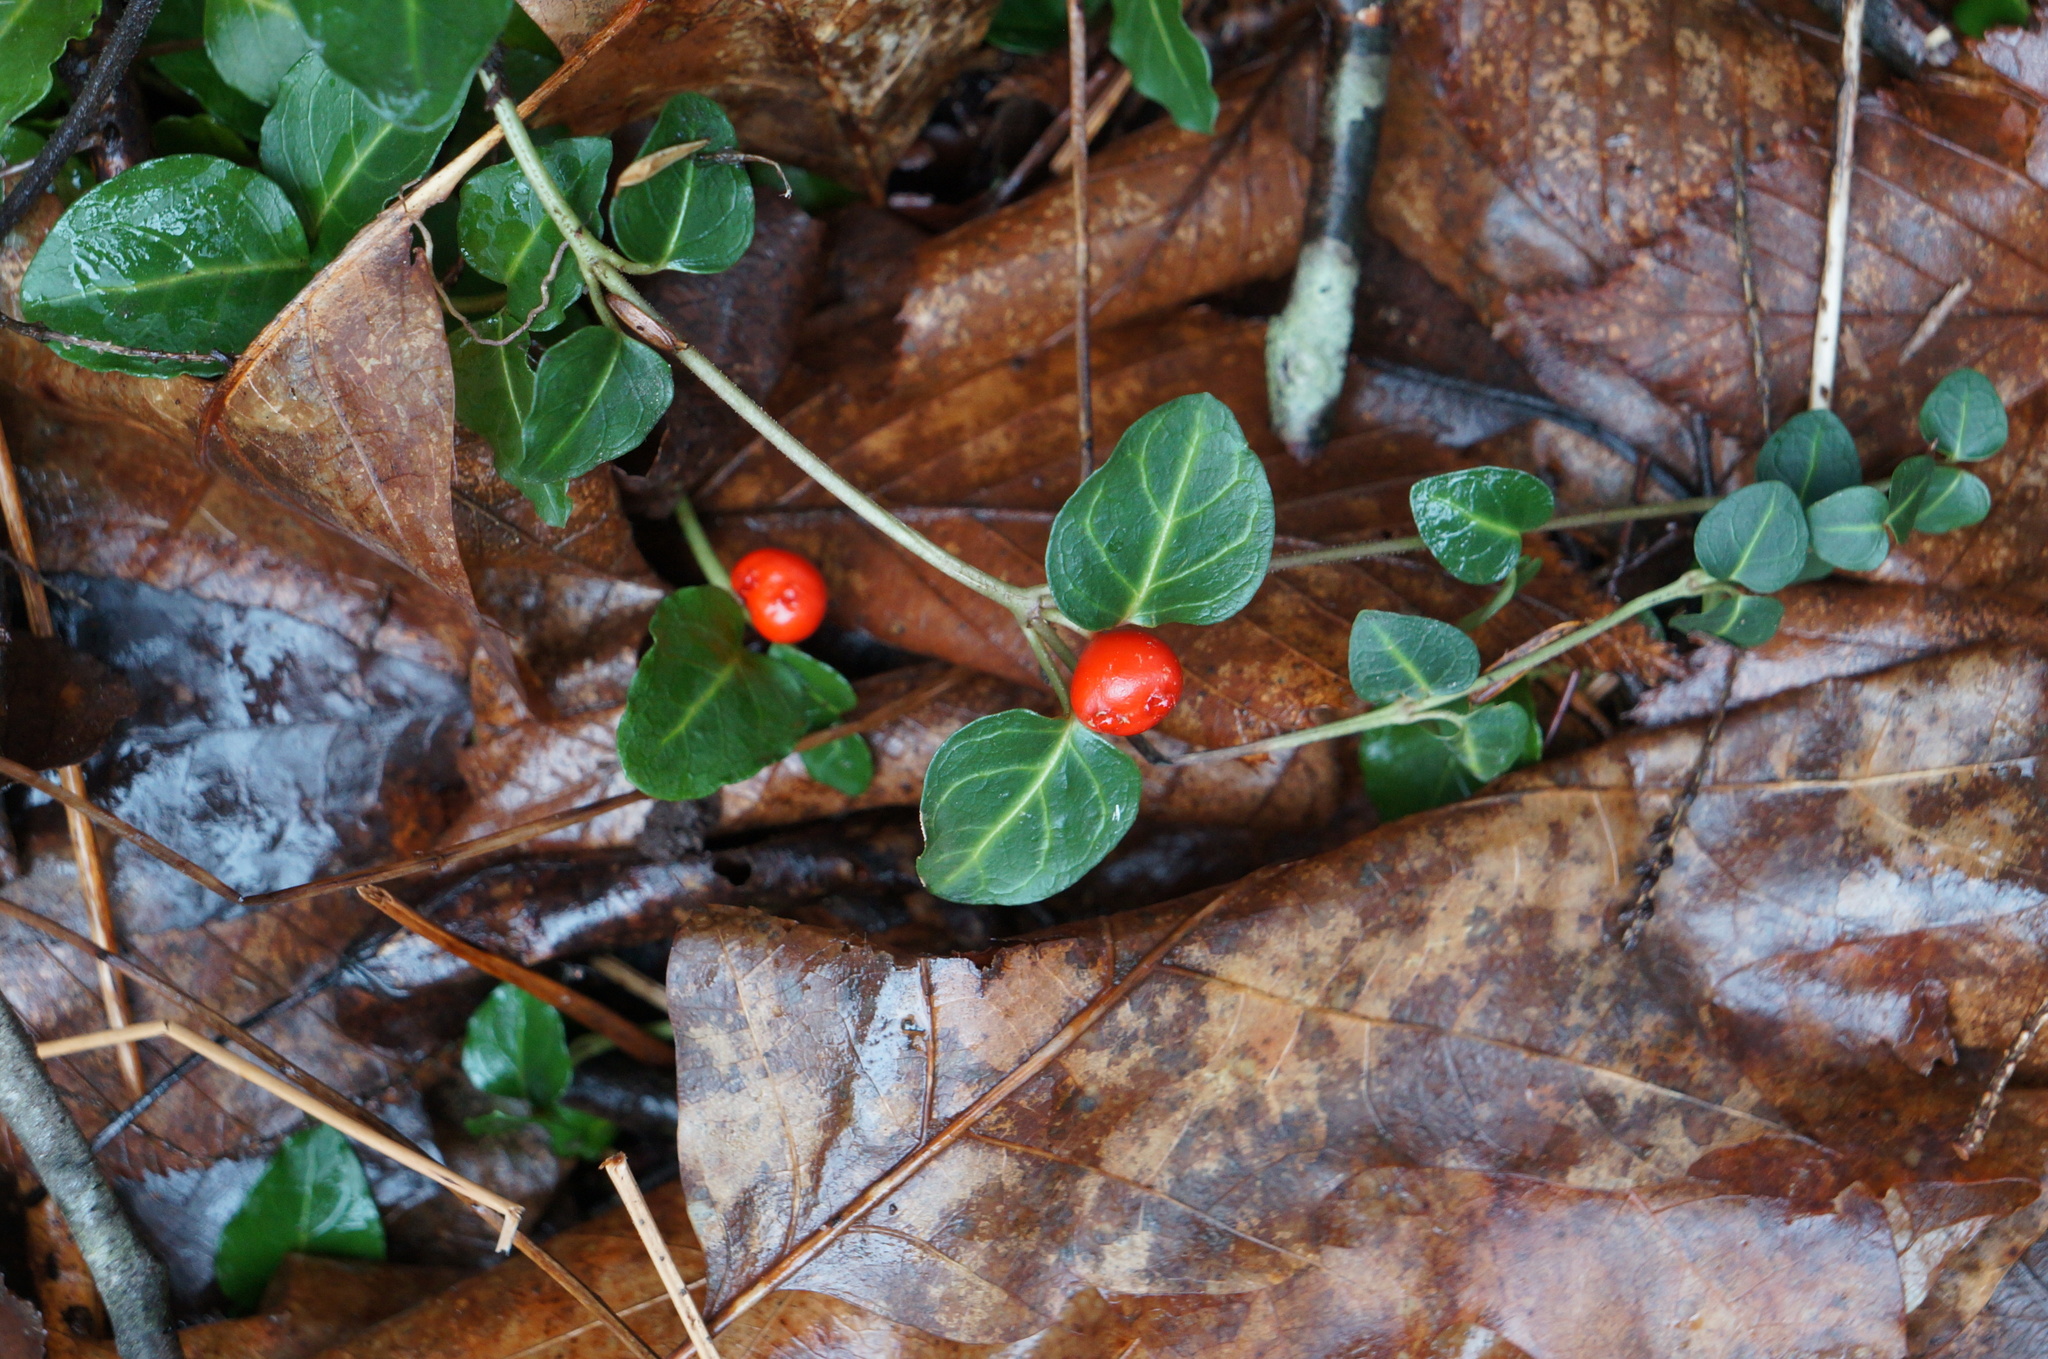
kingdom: Plantae
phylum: Tracheophyta
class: Magnoliopsida
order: Gentianales
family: Rubiaceae
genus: Mitchella
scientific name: Mitchella repens
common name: Partridge-berry
